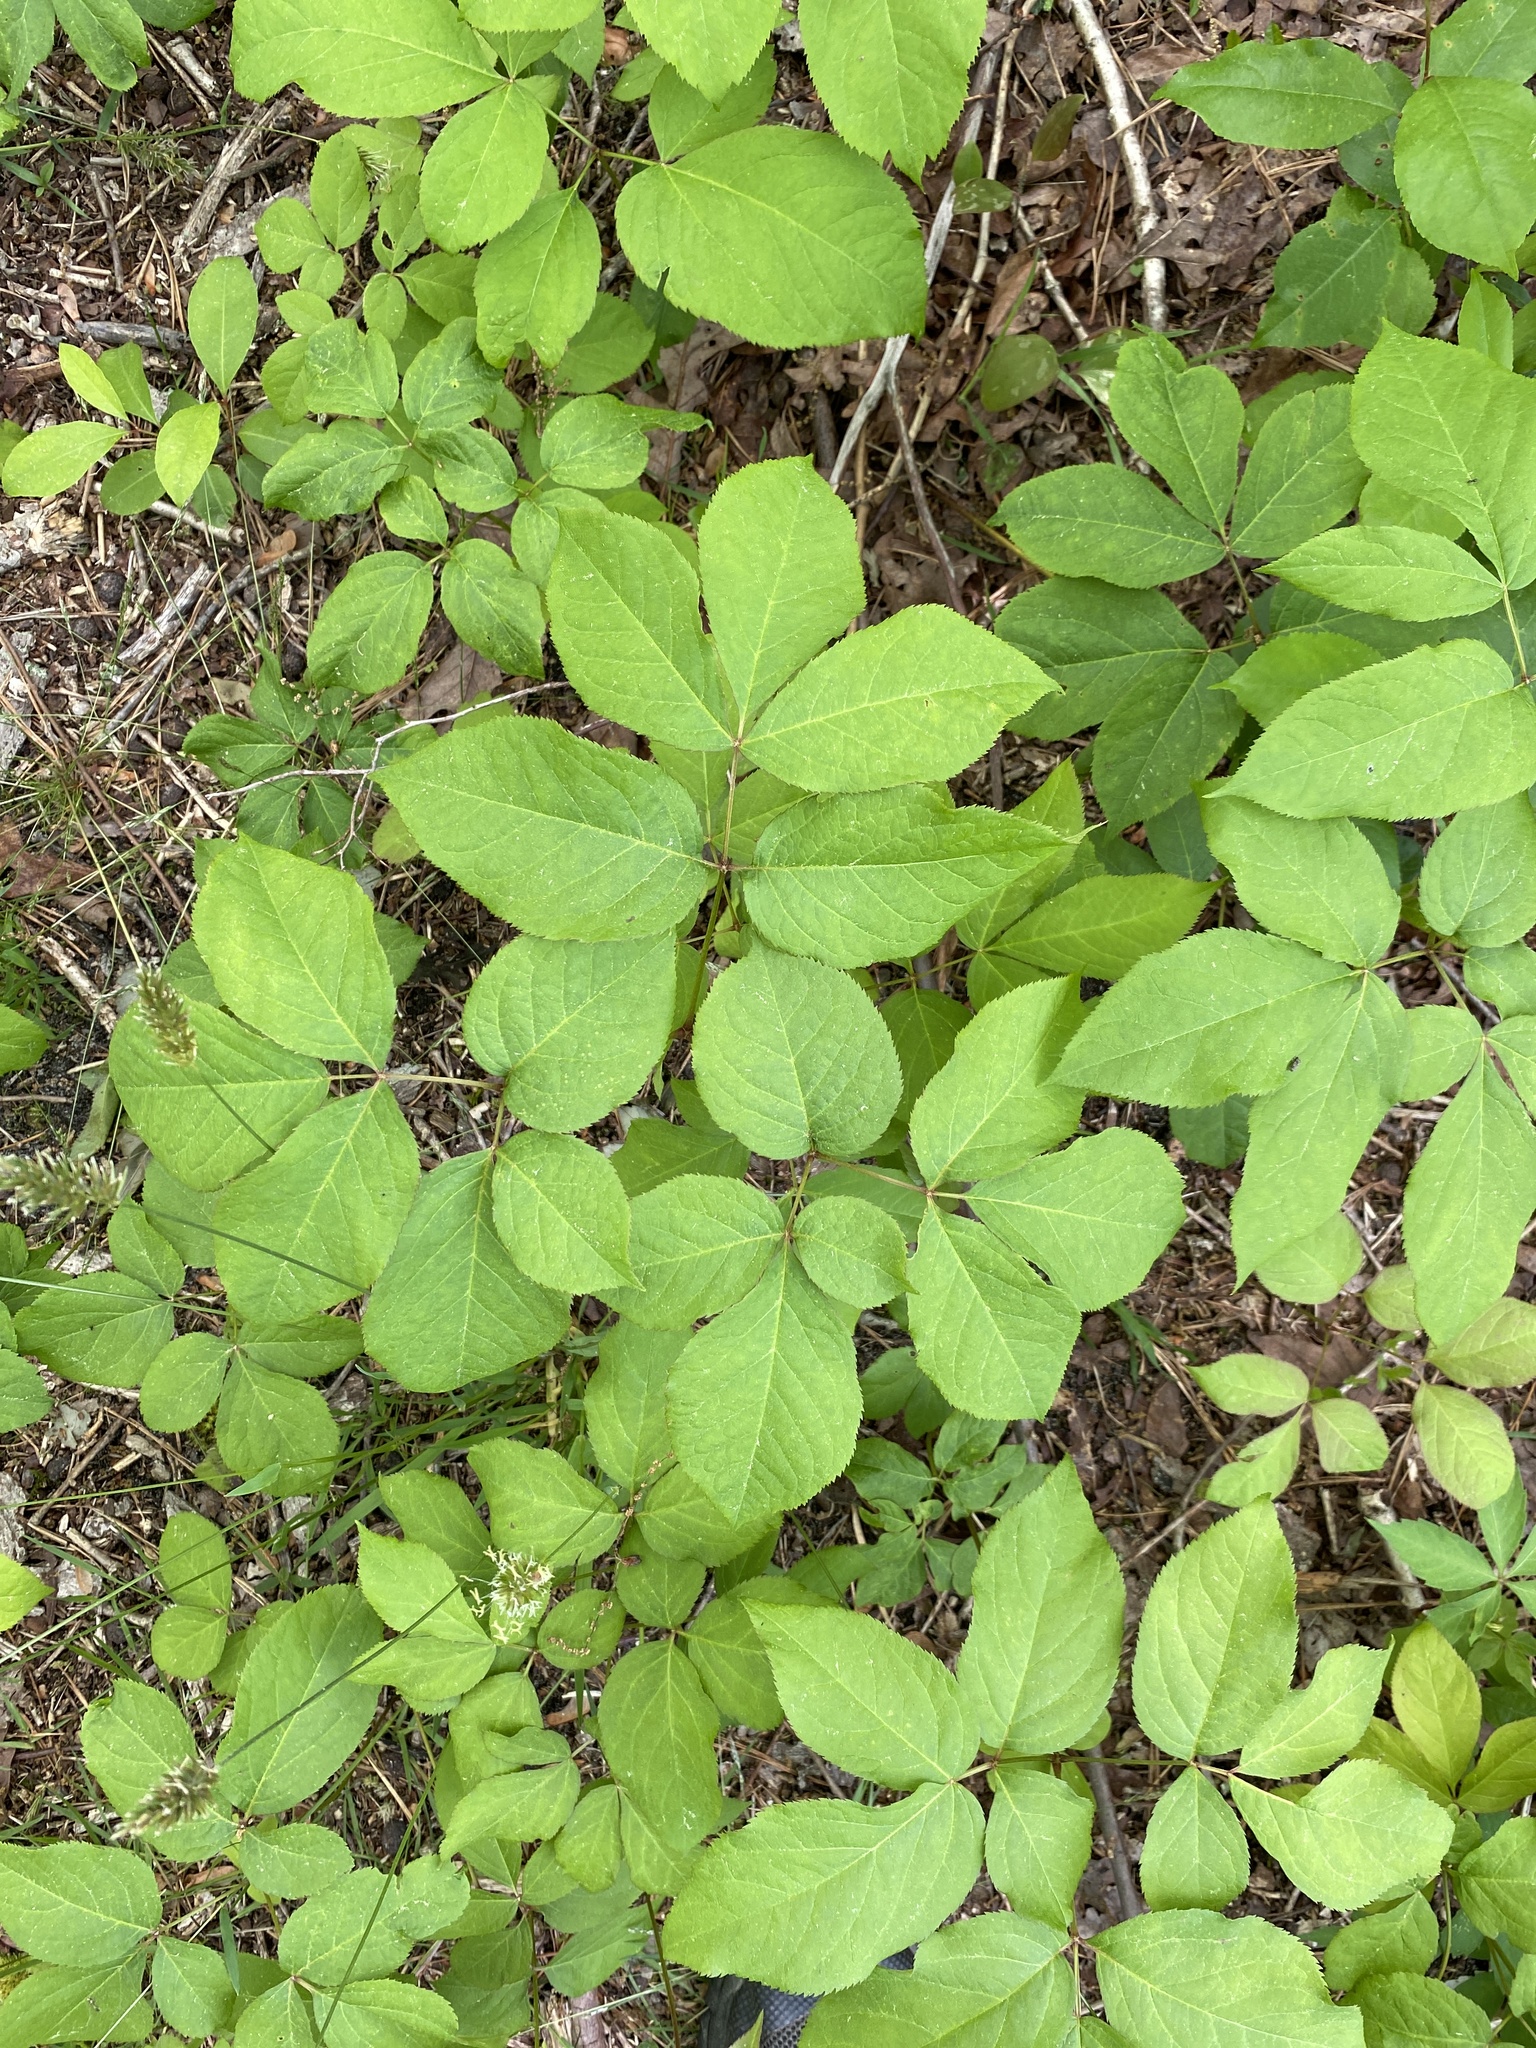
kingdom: Plantae
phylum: Tracheophyta
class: Magnoliopsida
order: Apiales
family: Araliaceae
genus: Aralia
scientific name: Aralia nudicaulis
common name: Wild sarsaparilla
